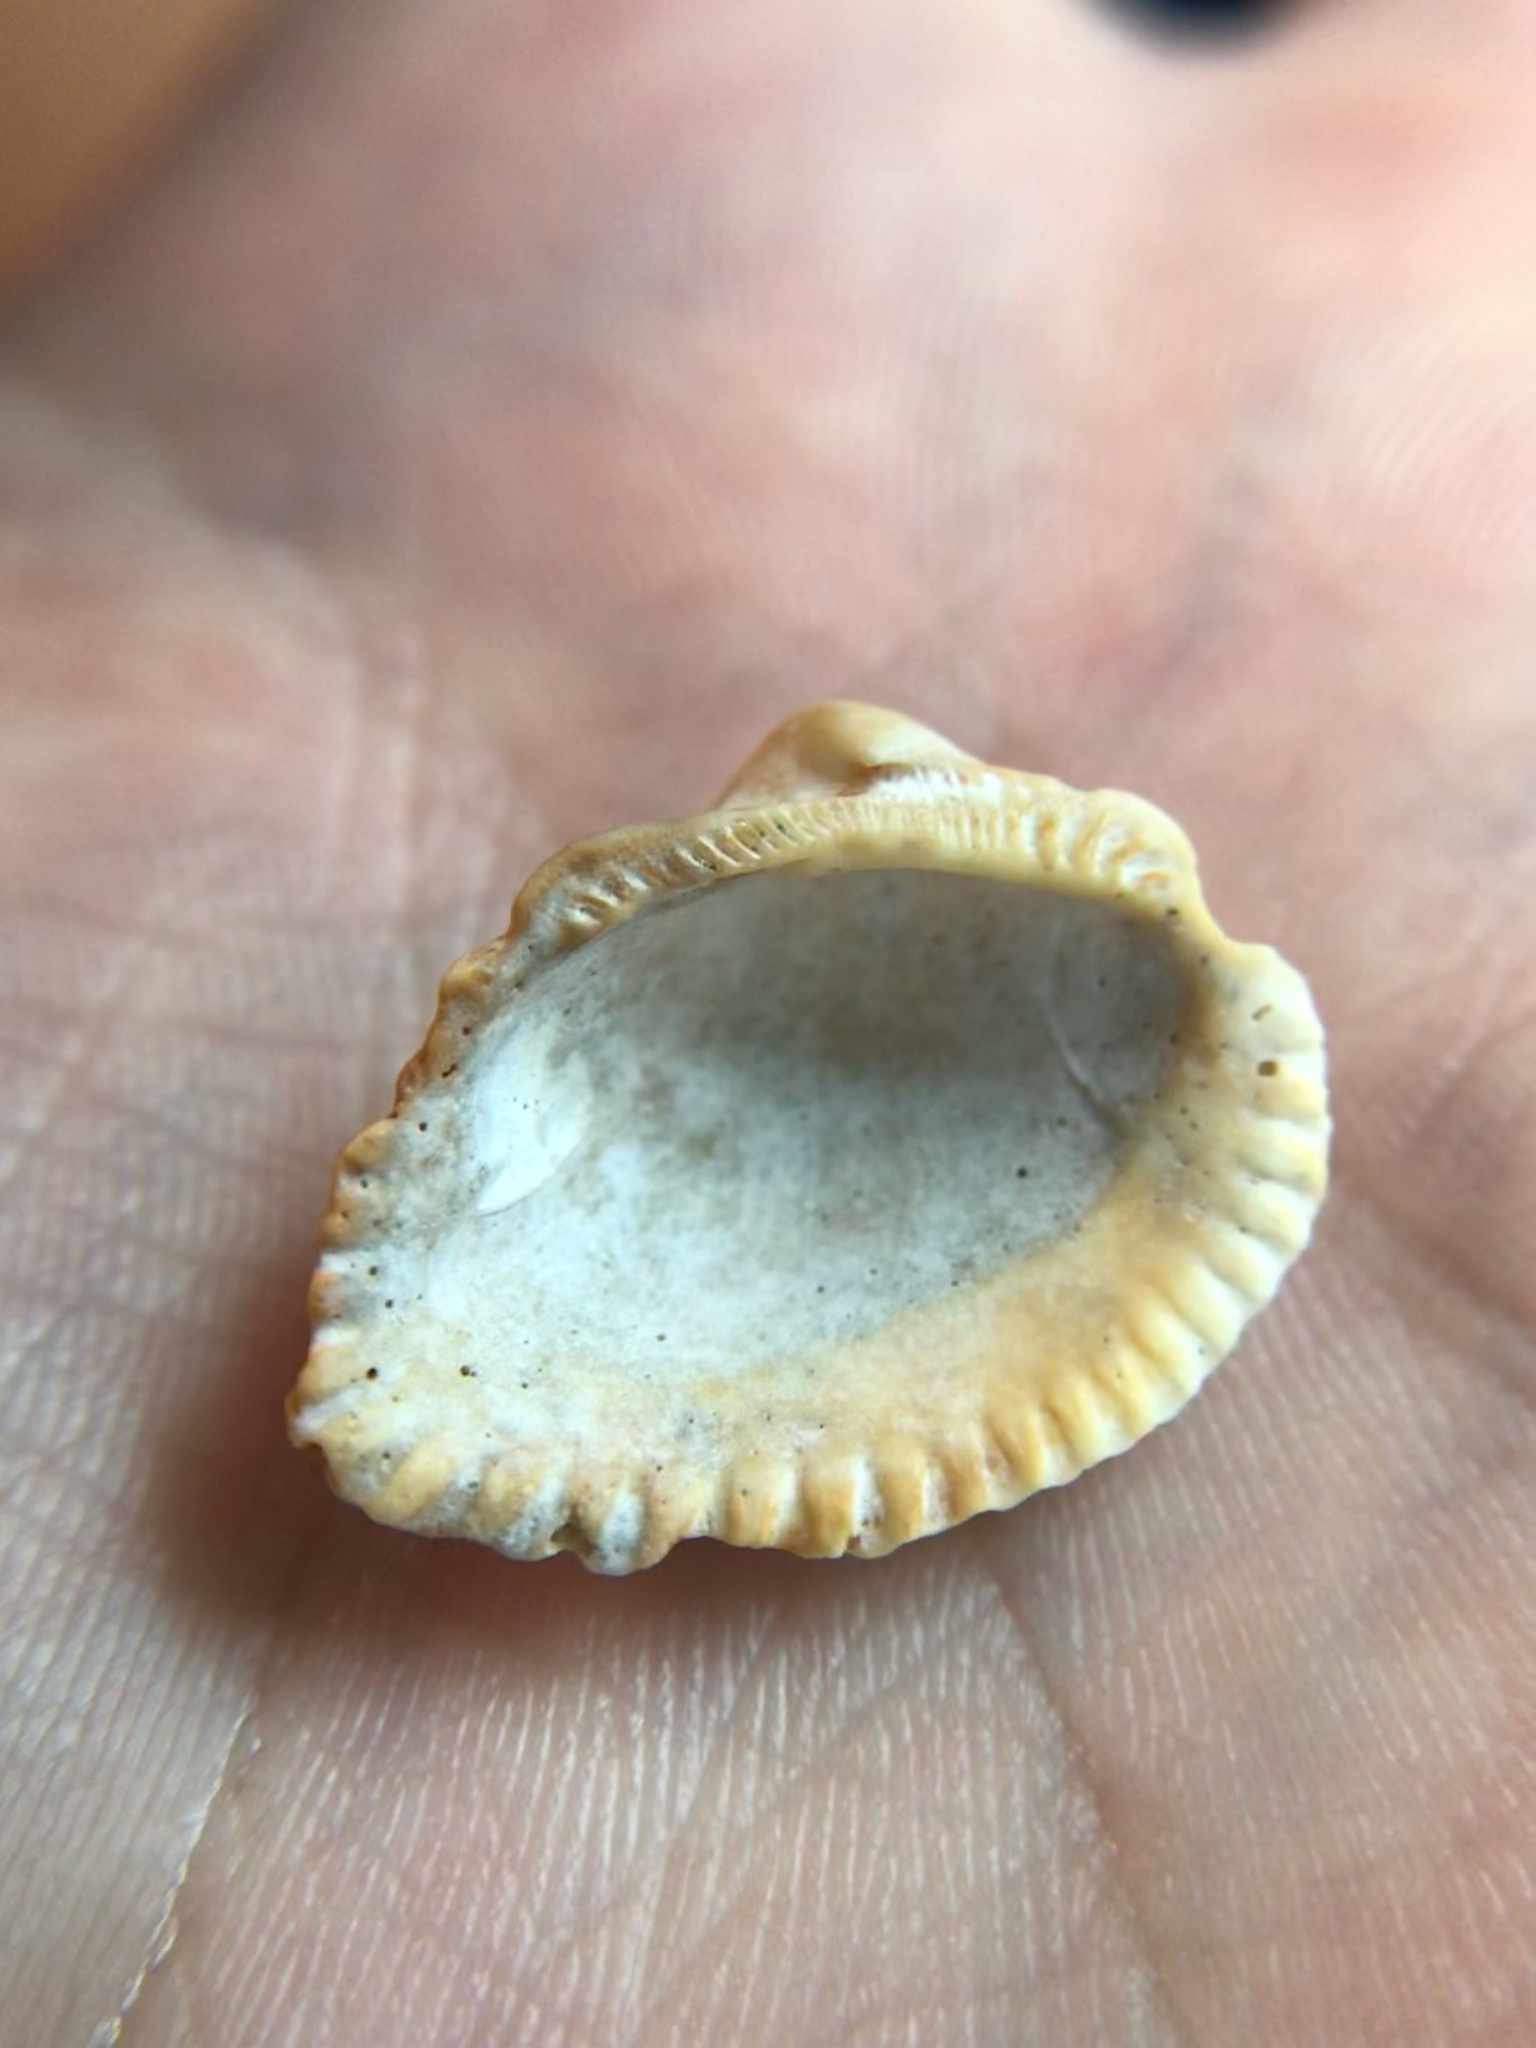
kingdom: Animalia
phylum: Mollusca
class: Bivalvia
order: Arcida
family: Noetiidae
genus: Noetia
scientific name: Noetia ponderosa
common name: Ponderous ark
